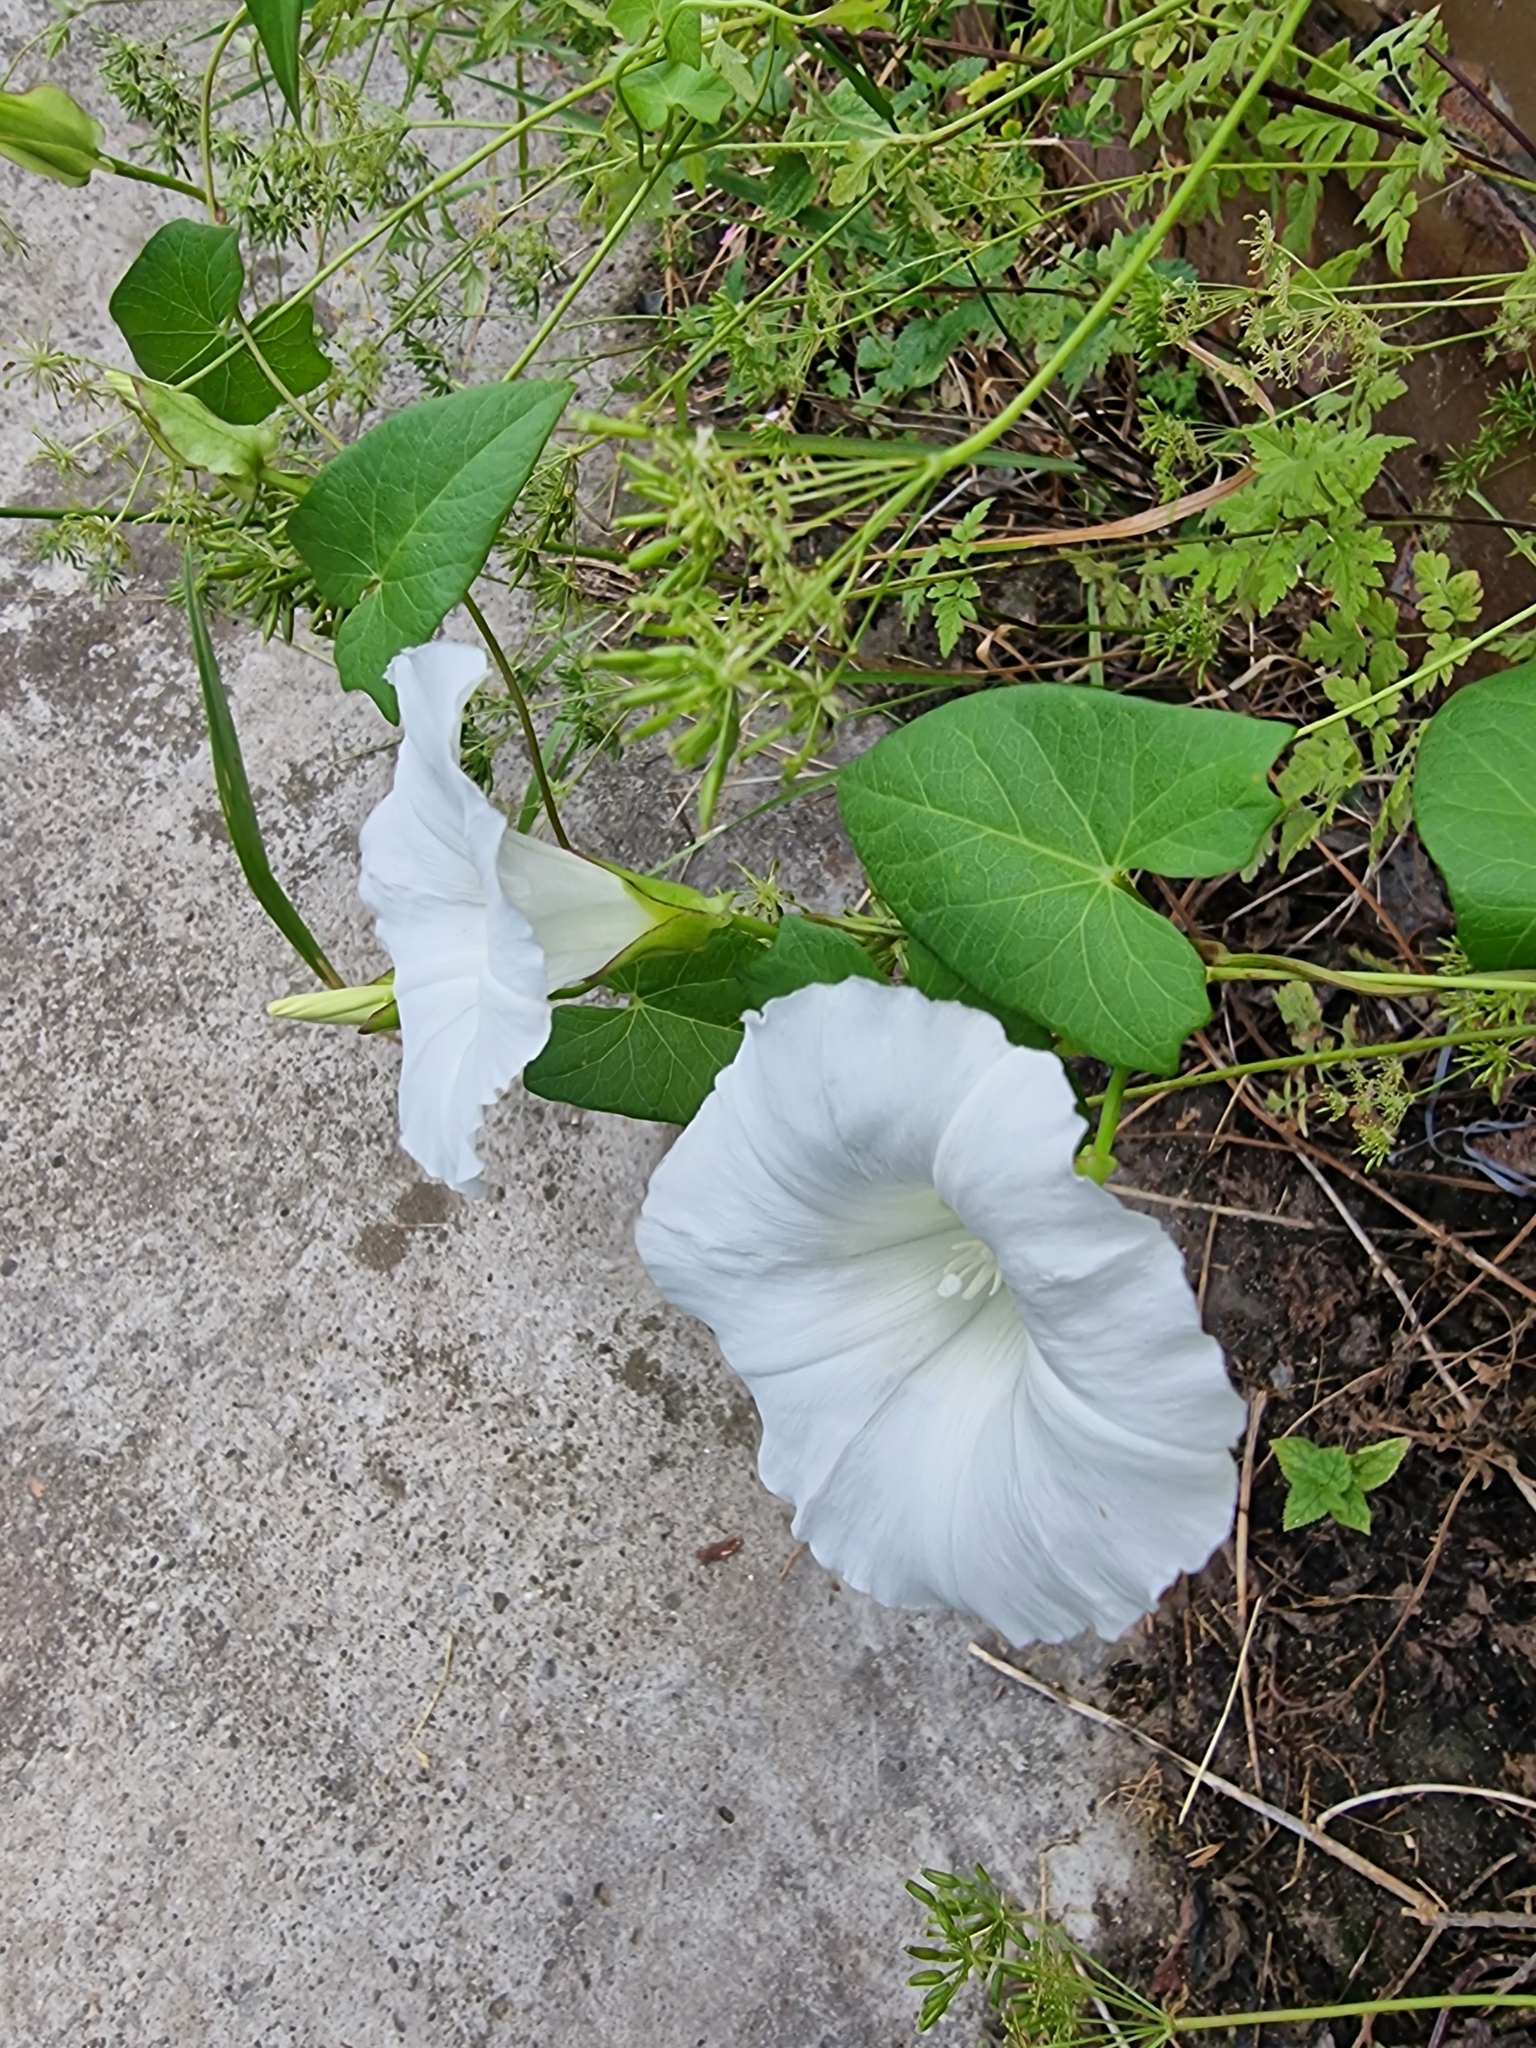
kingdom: Plantae
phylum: Tracheophyta
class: Magnoliopsida
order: Solanales
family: Convolvulaceae
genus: Calystegia
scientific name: Calystegia sepium
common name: Hedge bindweed
